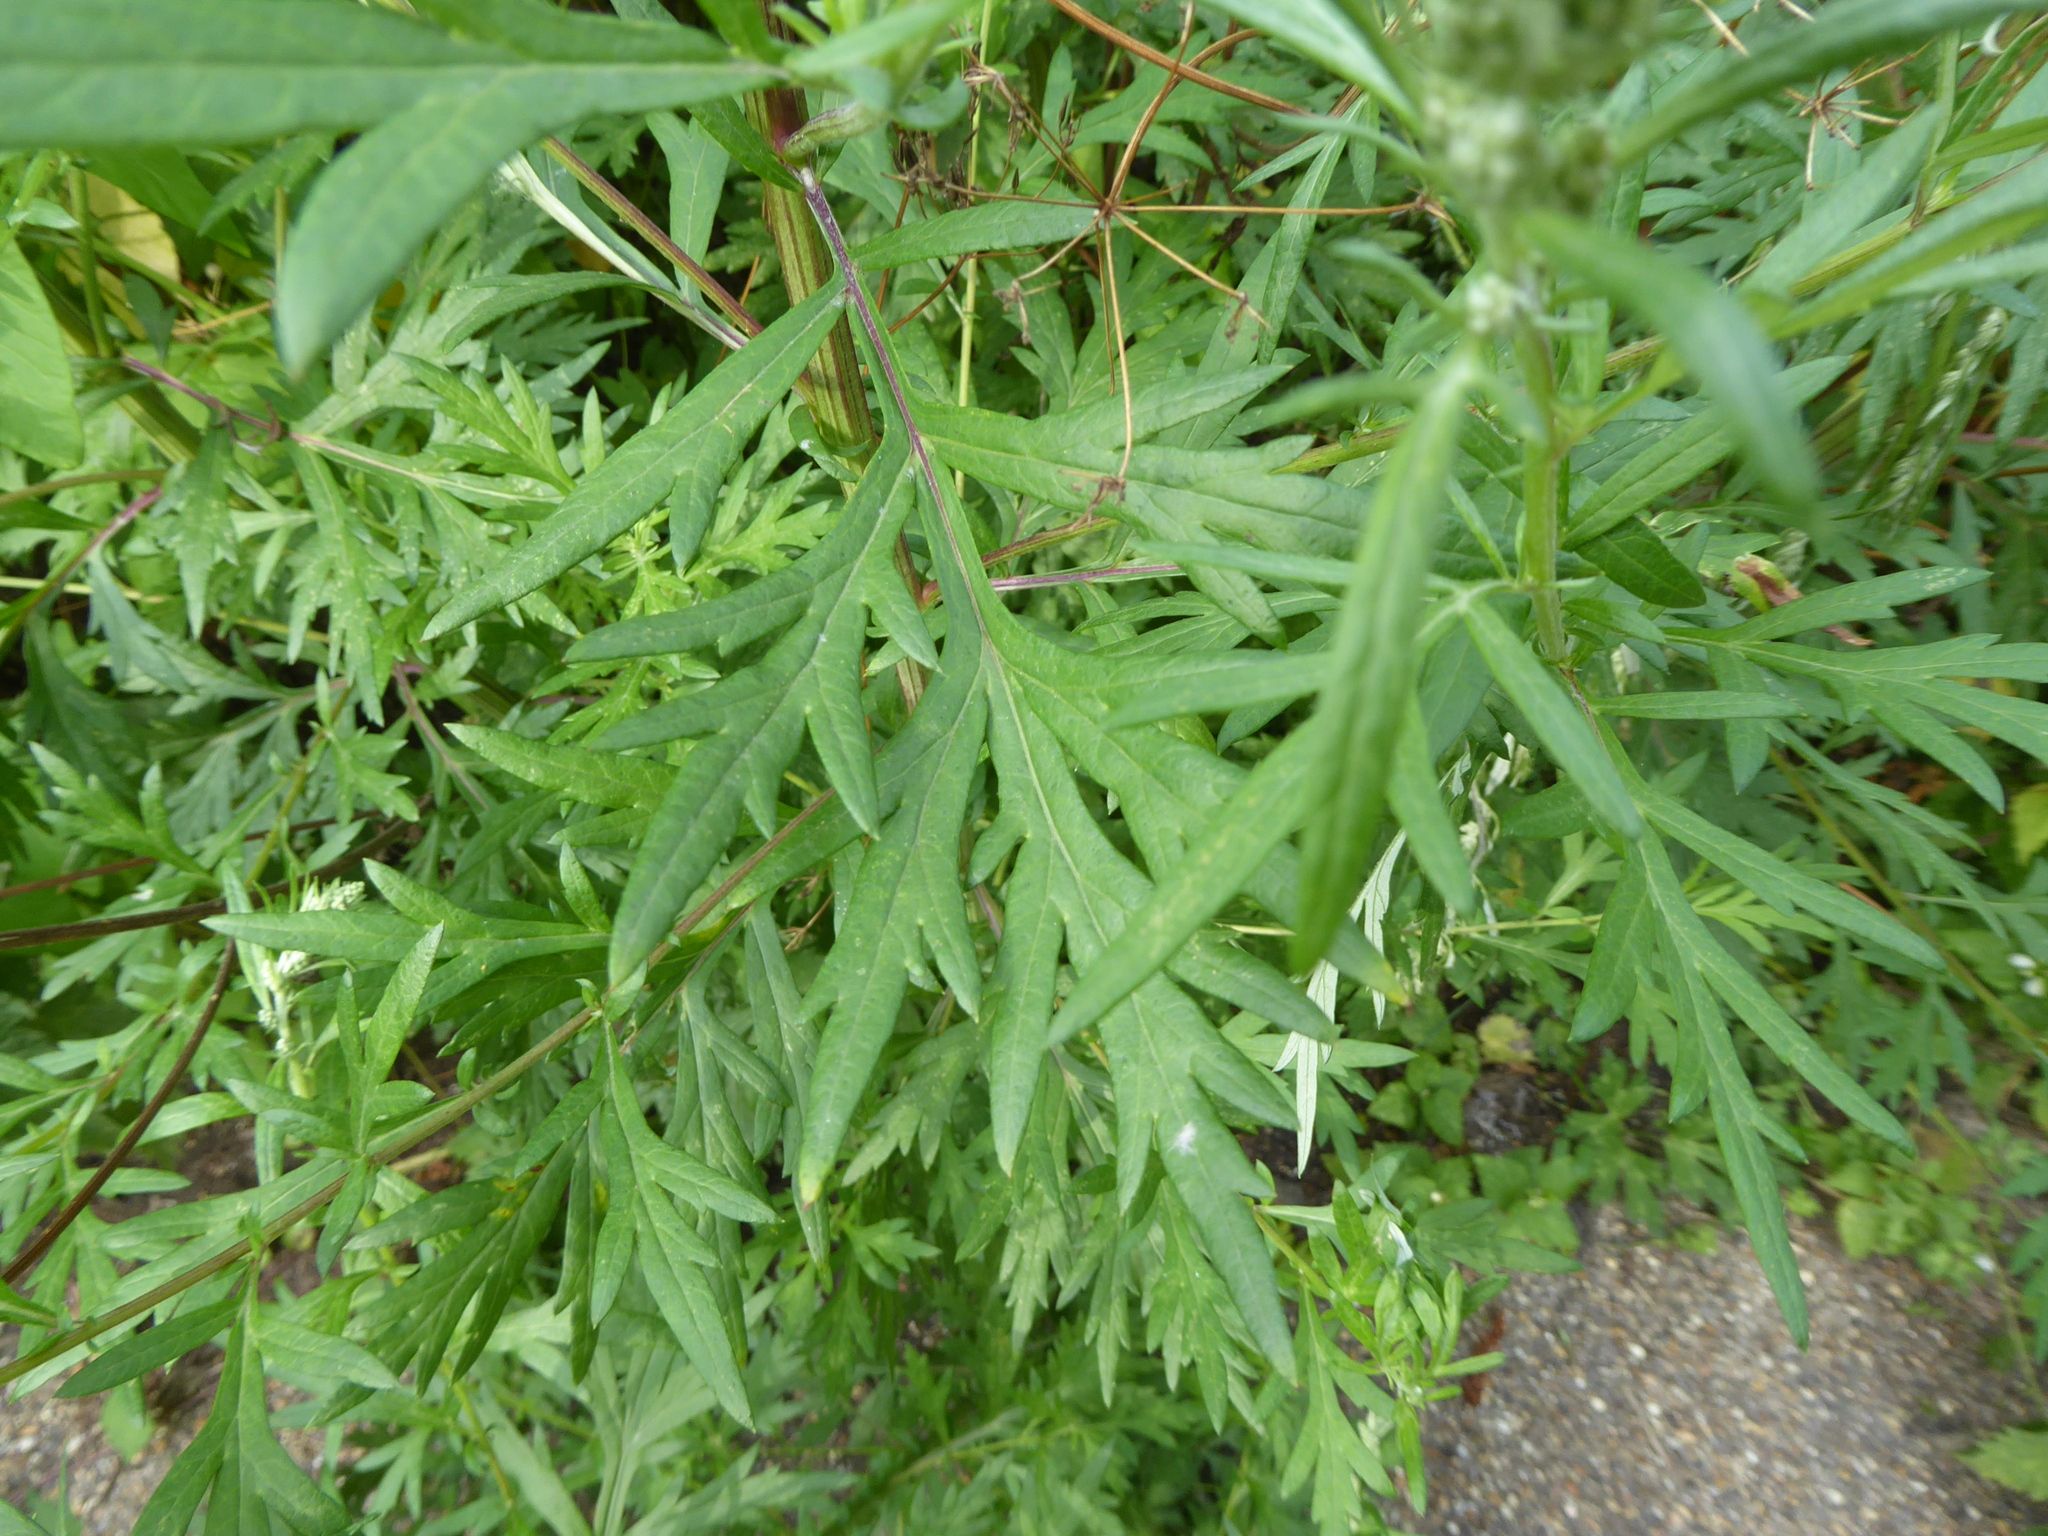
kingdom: Plantae
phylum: Tracheophyta
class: Magnoliopsida
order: Asterales
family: Asteraceae
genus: Artemisia
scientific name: Artemisia vulgaris
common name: Mugwort
